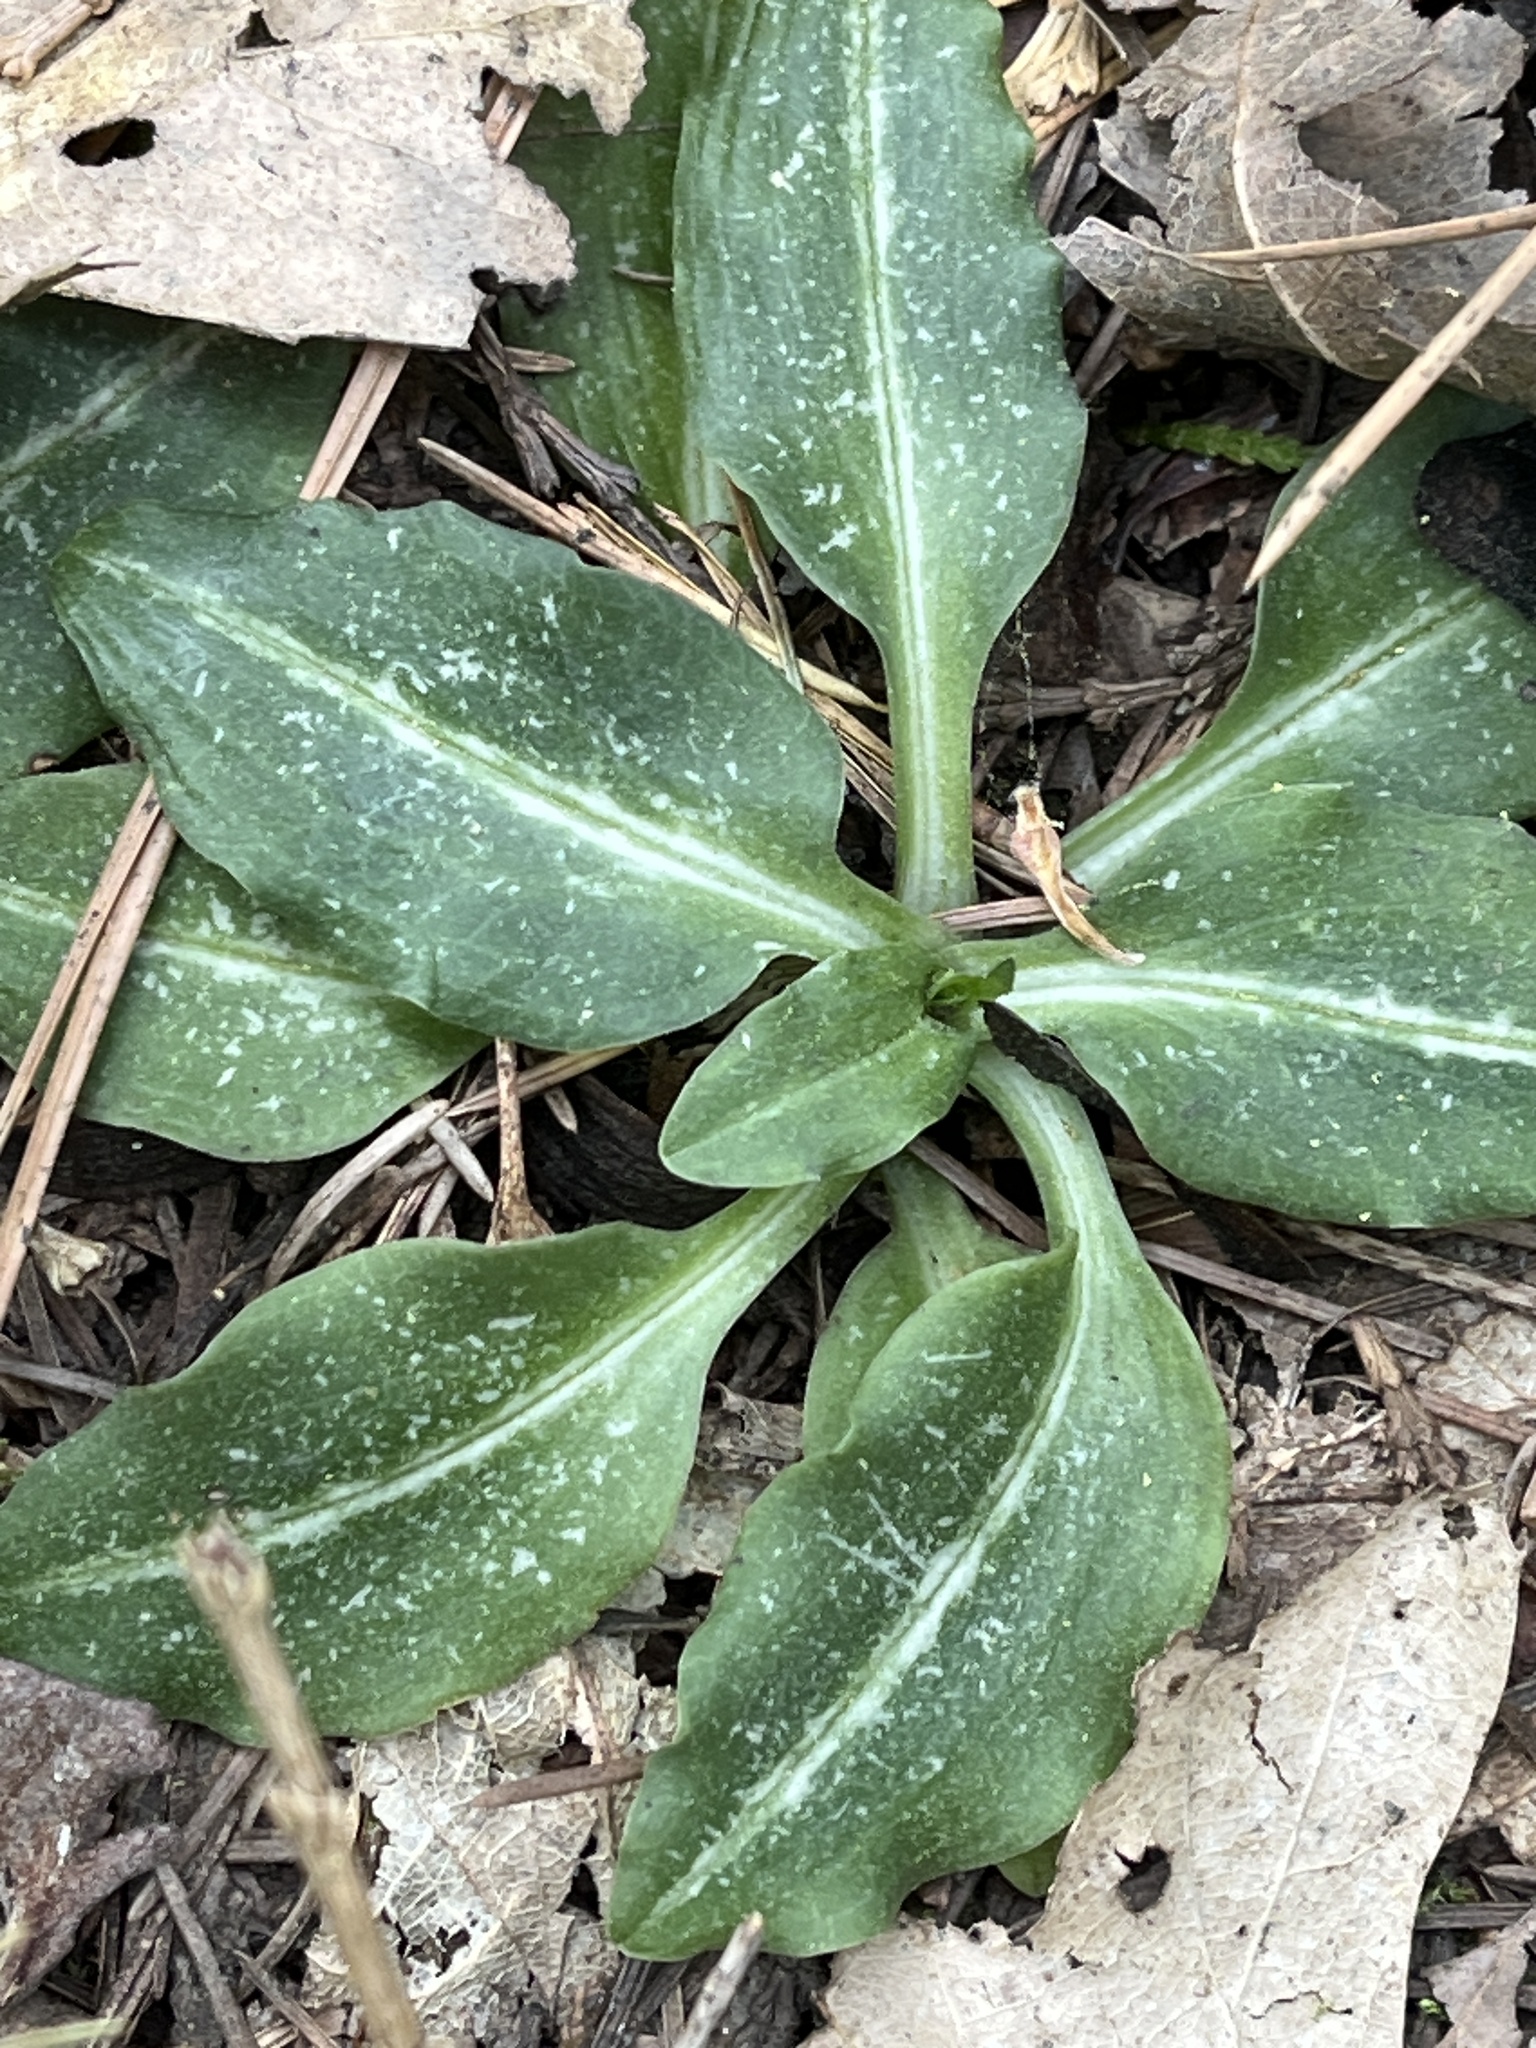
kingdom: Plantae
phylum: Tracheophyta
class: Liliopsida
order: Asparagales
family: Orchidaceae
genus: Goodyera
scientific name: Goodyera oblongifolia
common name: Giant rattlesnake-plantain
